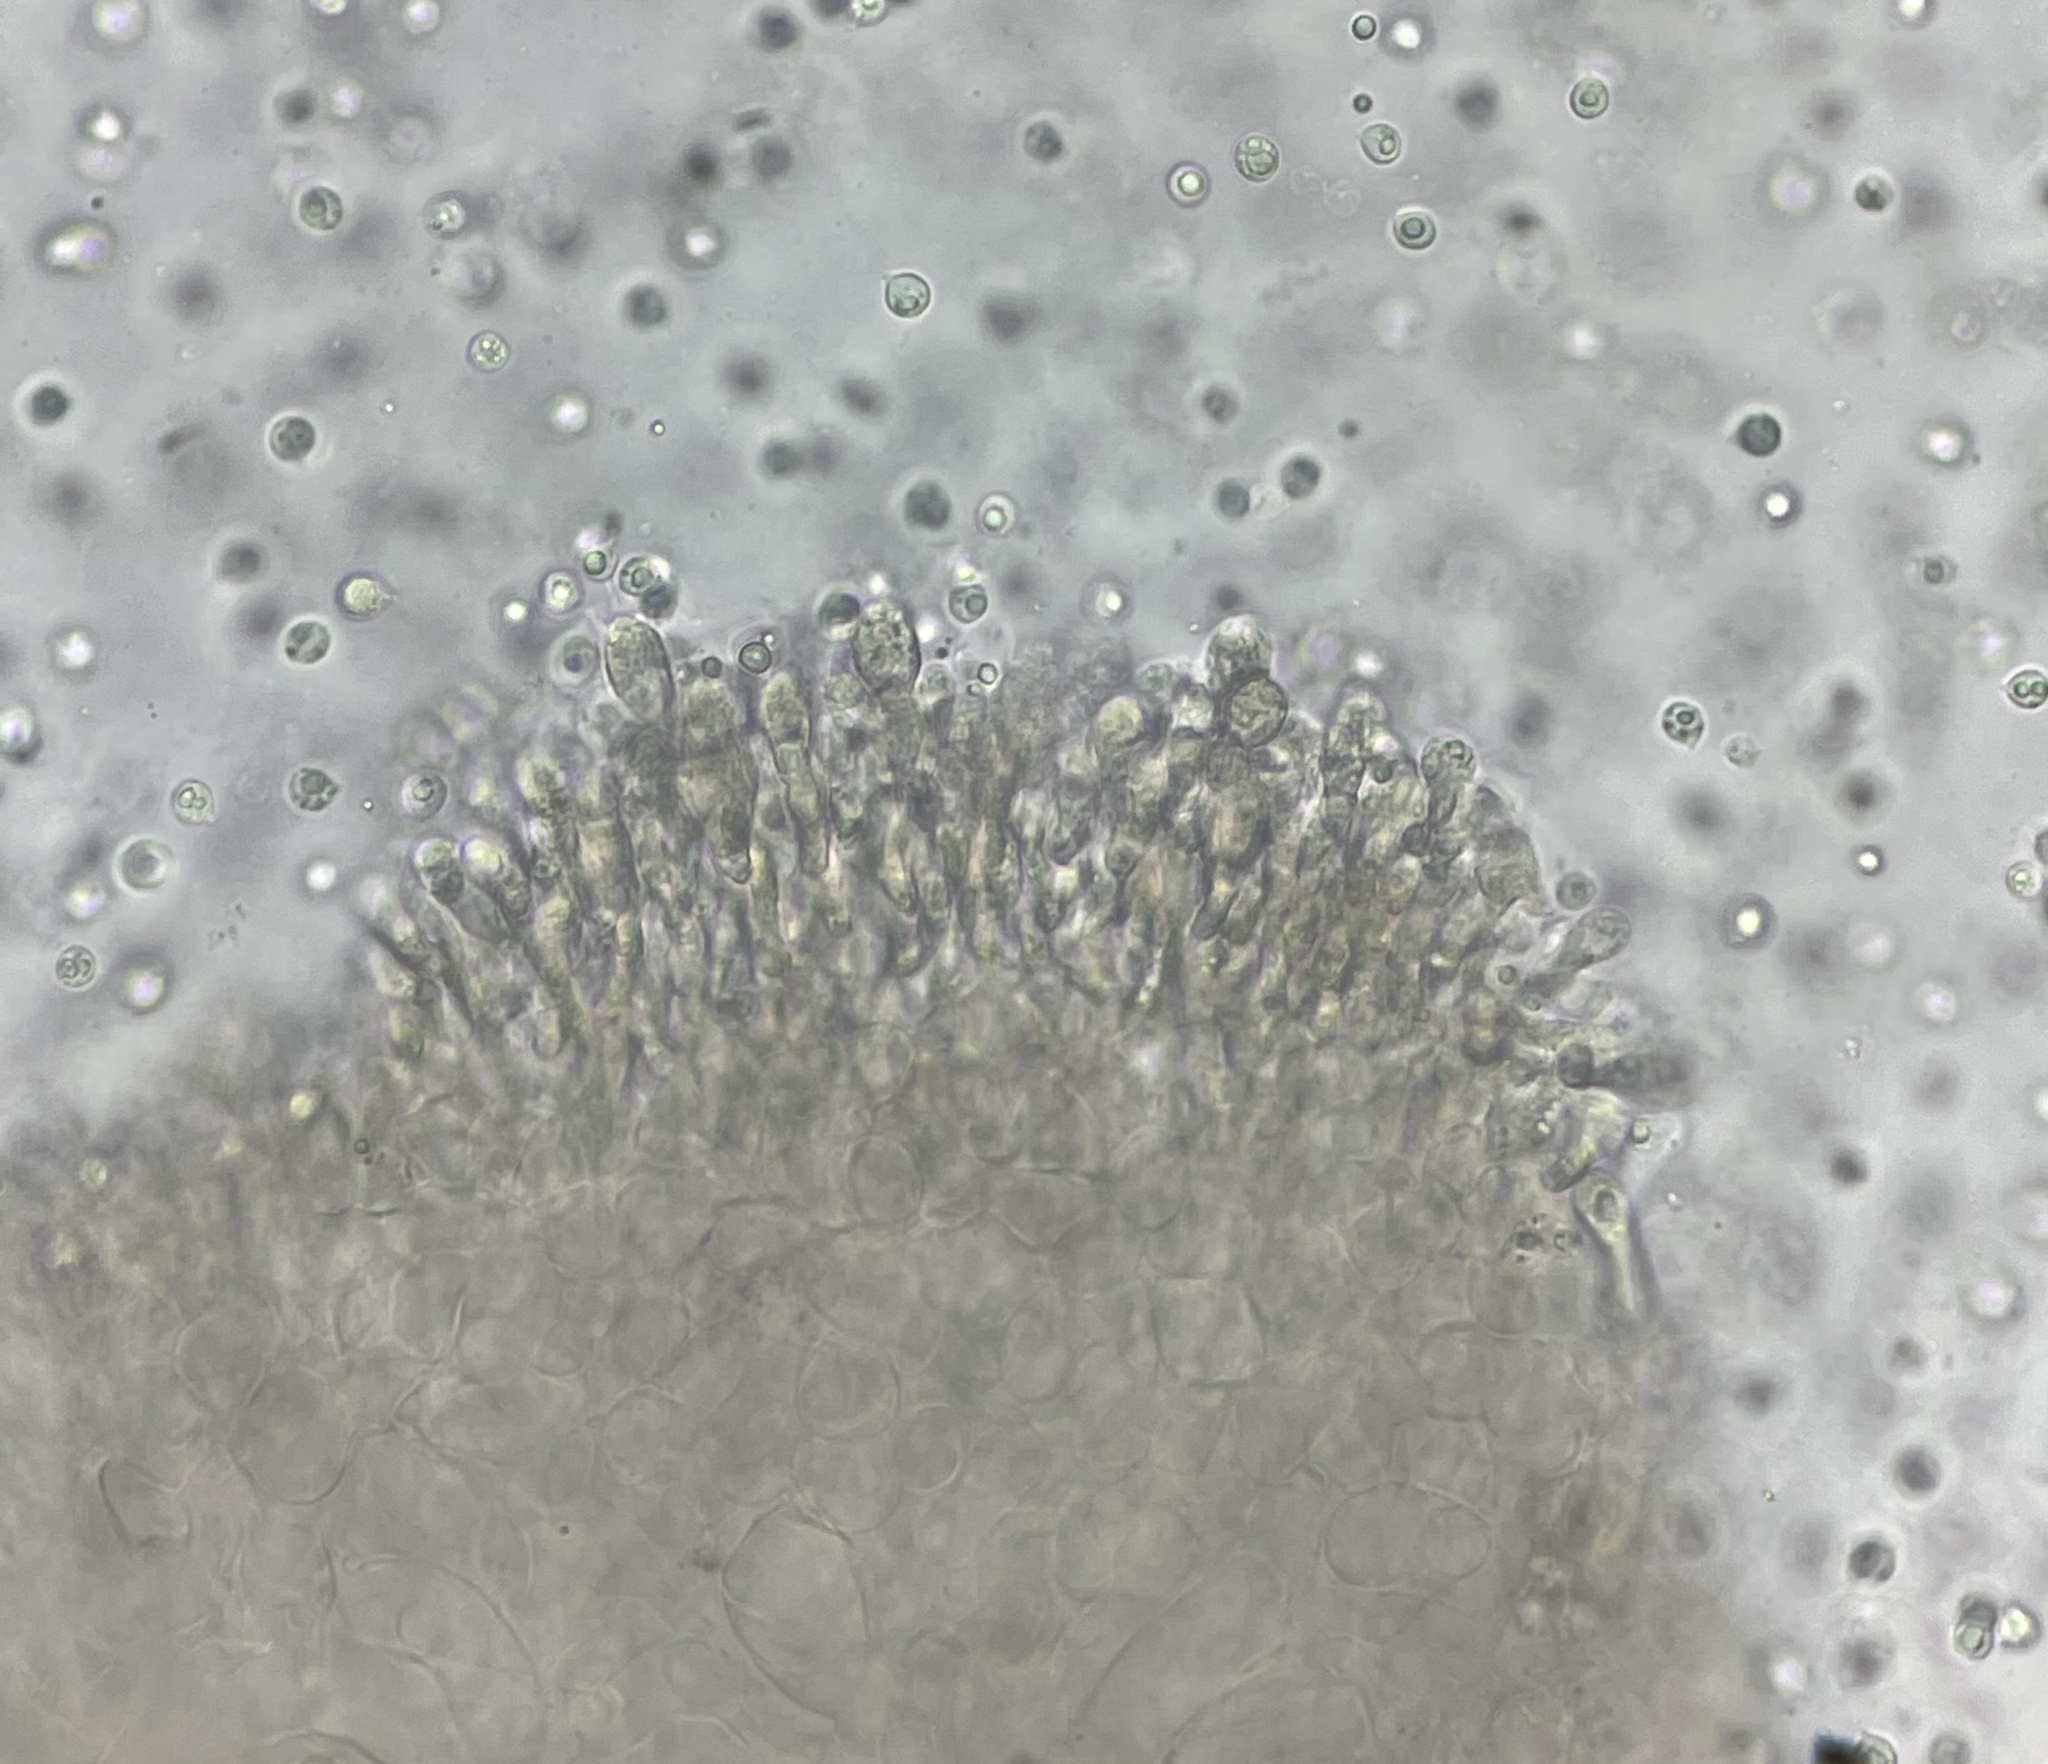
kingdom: Fungi
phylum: Basidiomycota
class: Agaricomycetes
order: Agaricales
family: Amanitaceae
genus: Amanita
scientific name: Amanita lavendula
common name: Coker's lavender staining amanita
